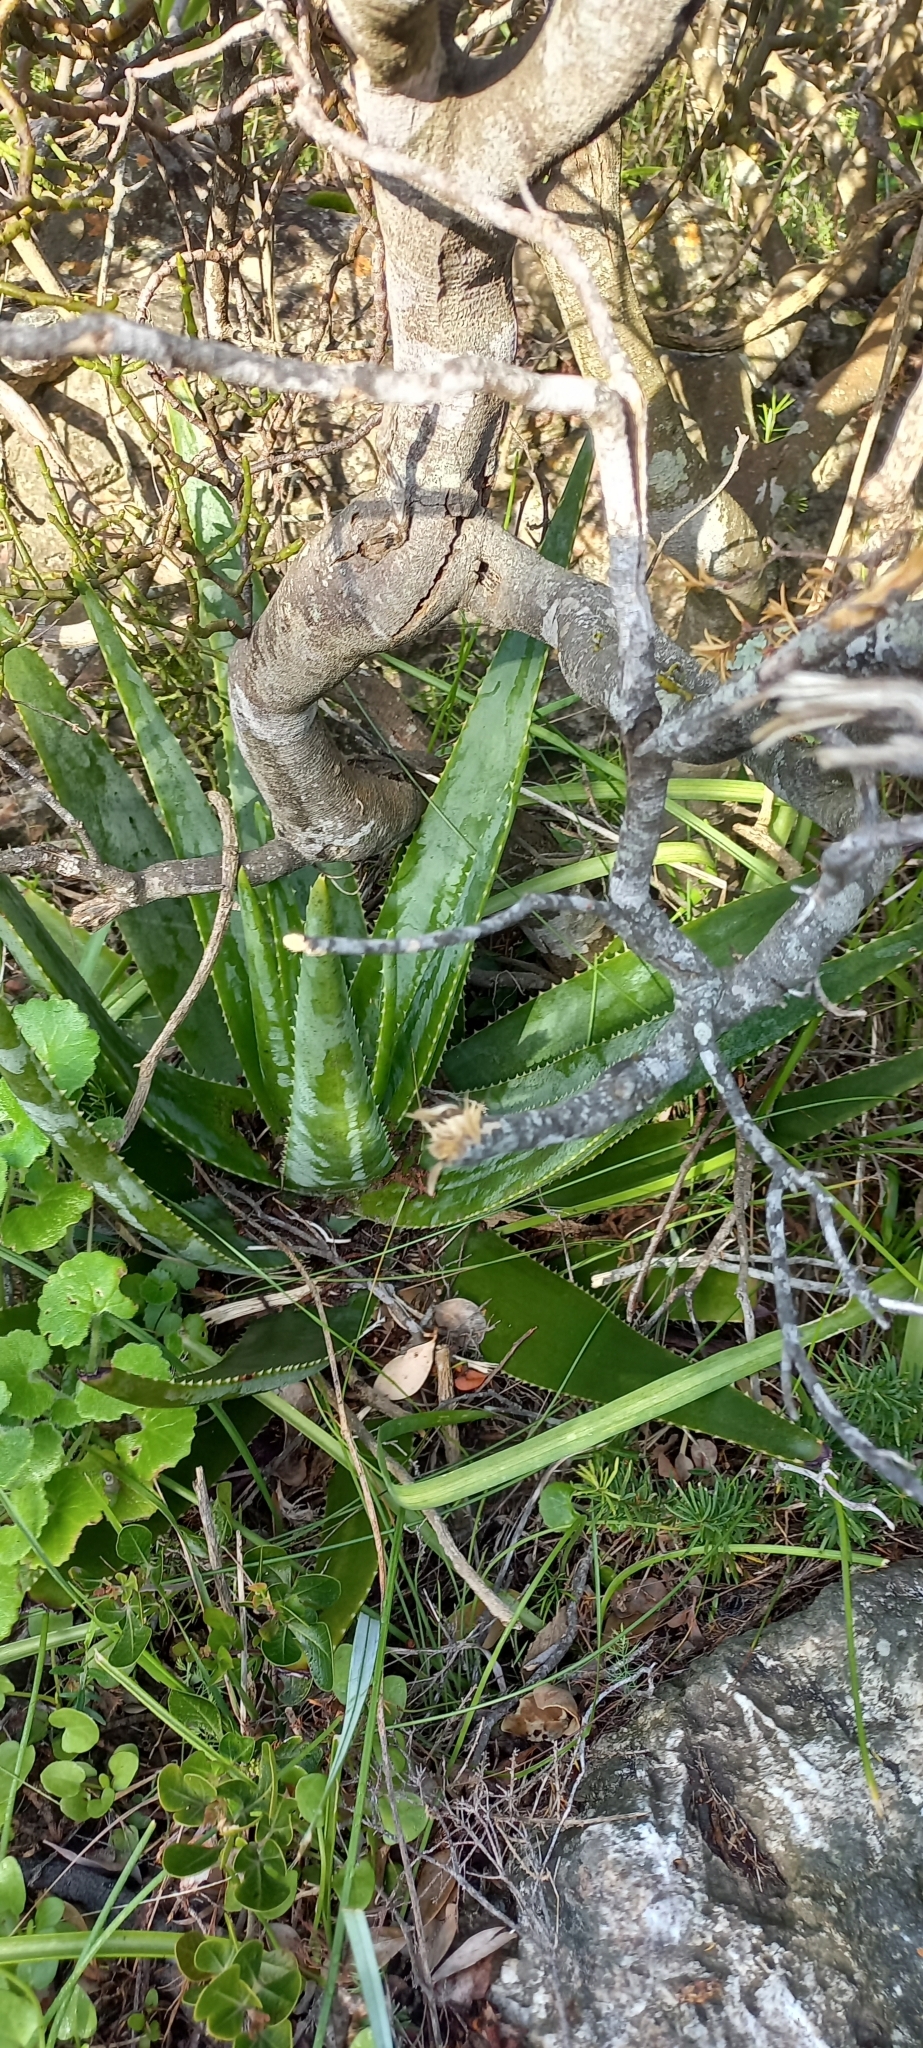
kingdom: Plantae
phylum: Tracheophyta
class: Liliopsida
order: Asparagales
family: Asphodelaceae
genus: Aloe
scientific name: Aloe succotrina
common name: Bombay aloe
